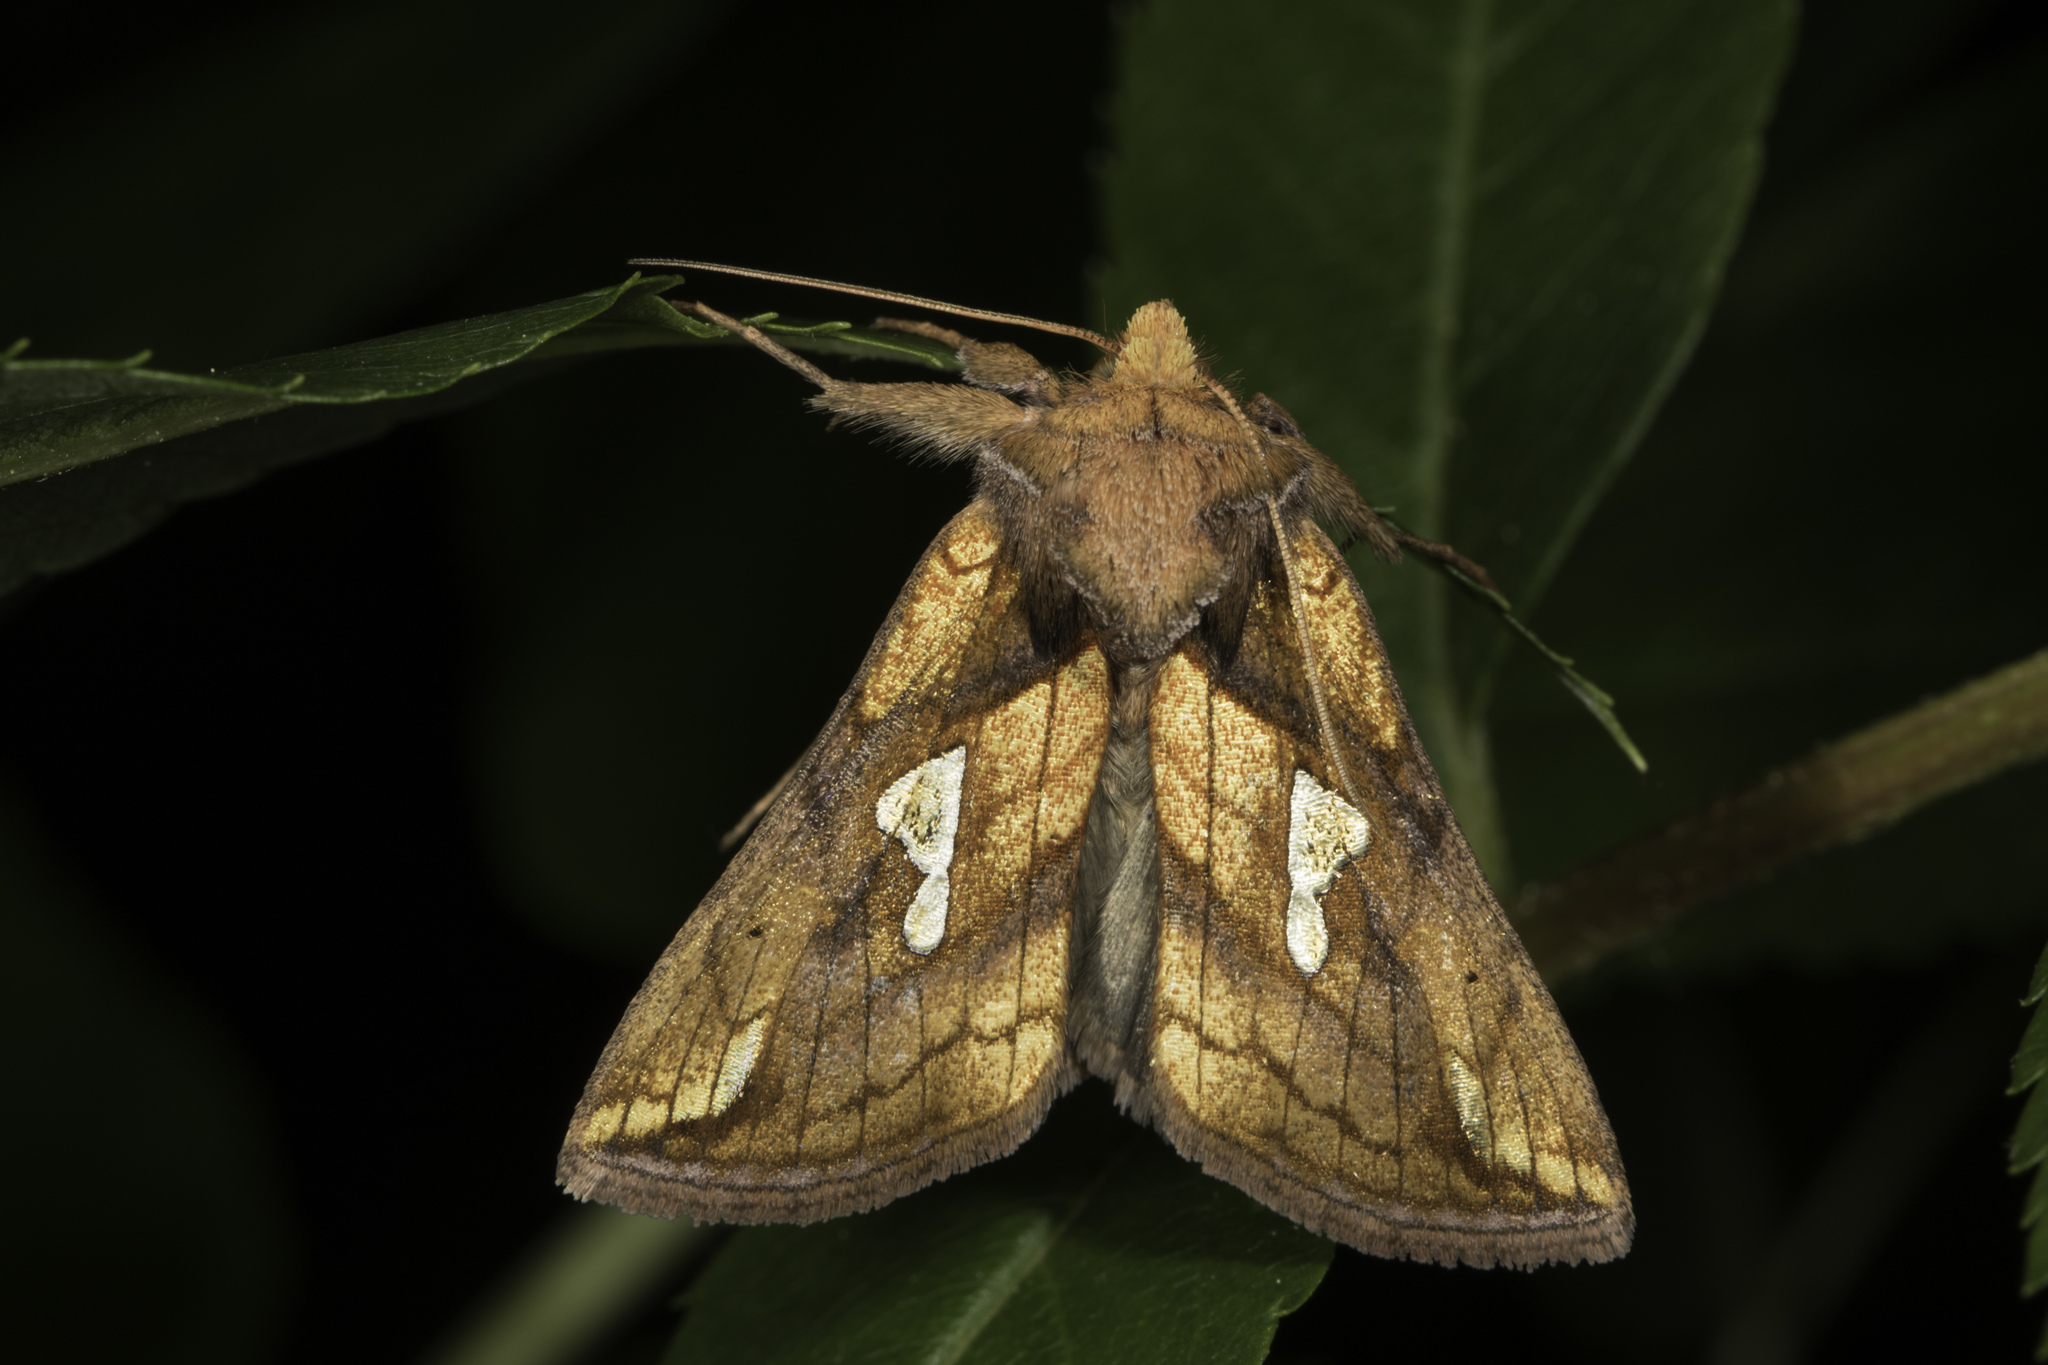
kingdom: Animalia
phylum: Arthropoda
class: Insecta
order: Lepidoptera
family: Noctuidae
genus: Plusia
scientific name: Plusia putnami
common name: Lempke's gold spot
